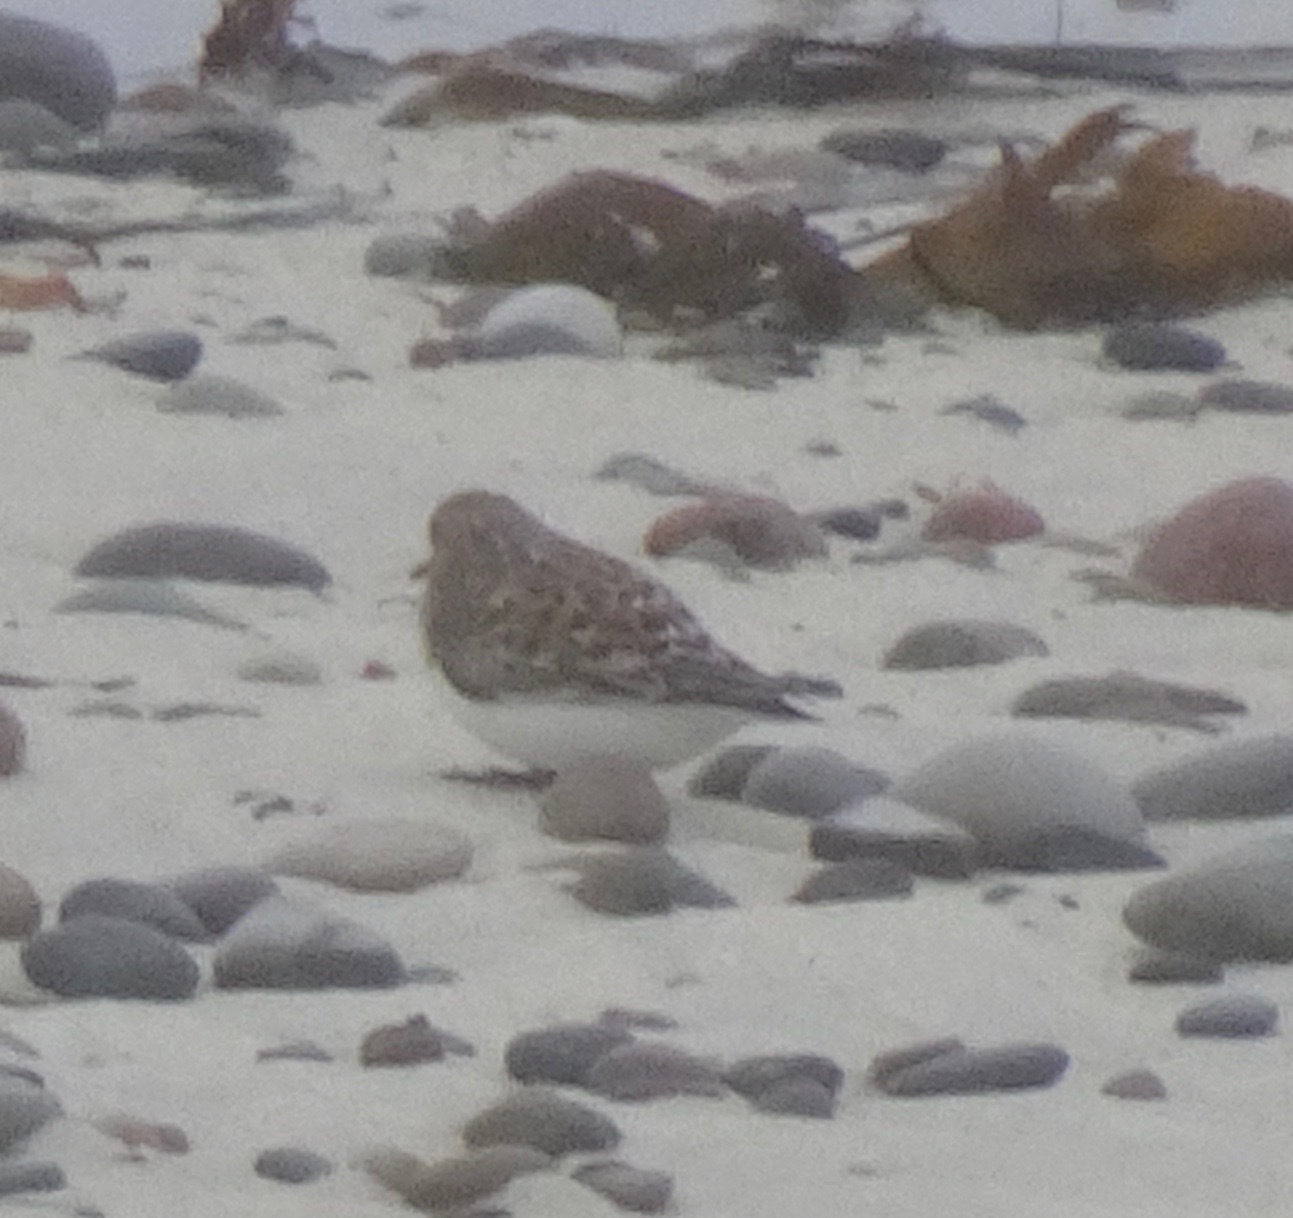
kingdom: Animalia
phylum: Chordata
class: Aves
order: Charadriiformes
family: Scolopacidae
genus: Calidris
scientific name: Calidris alba
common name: Sanderling
